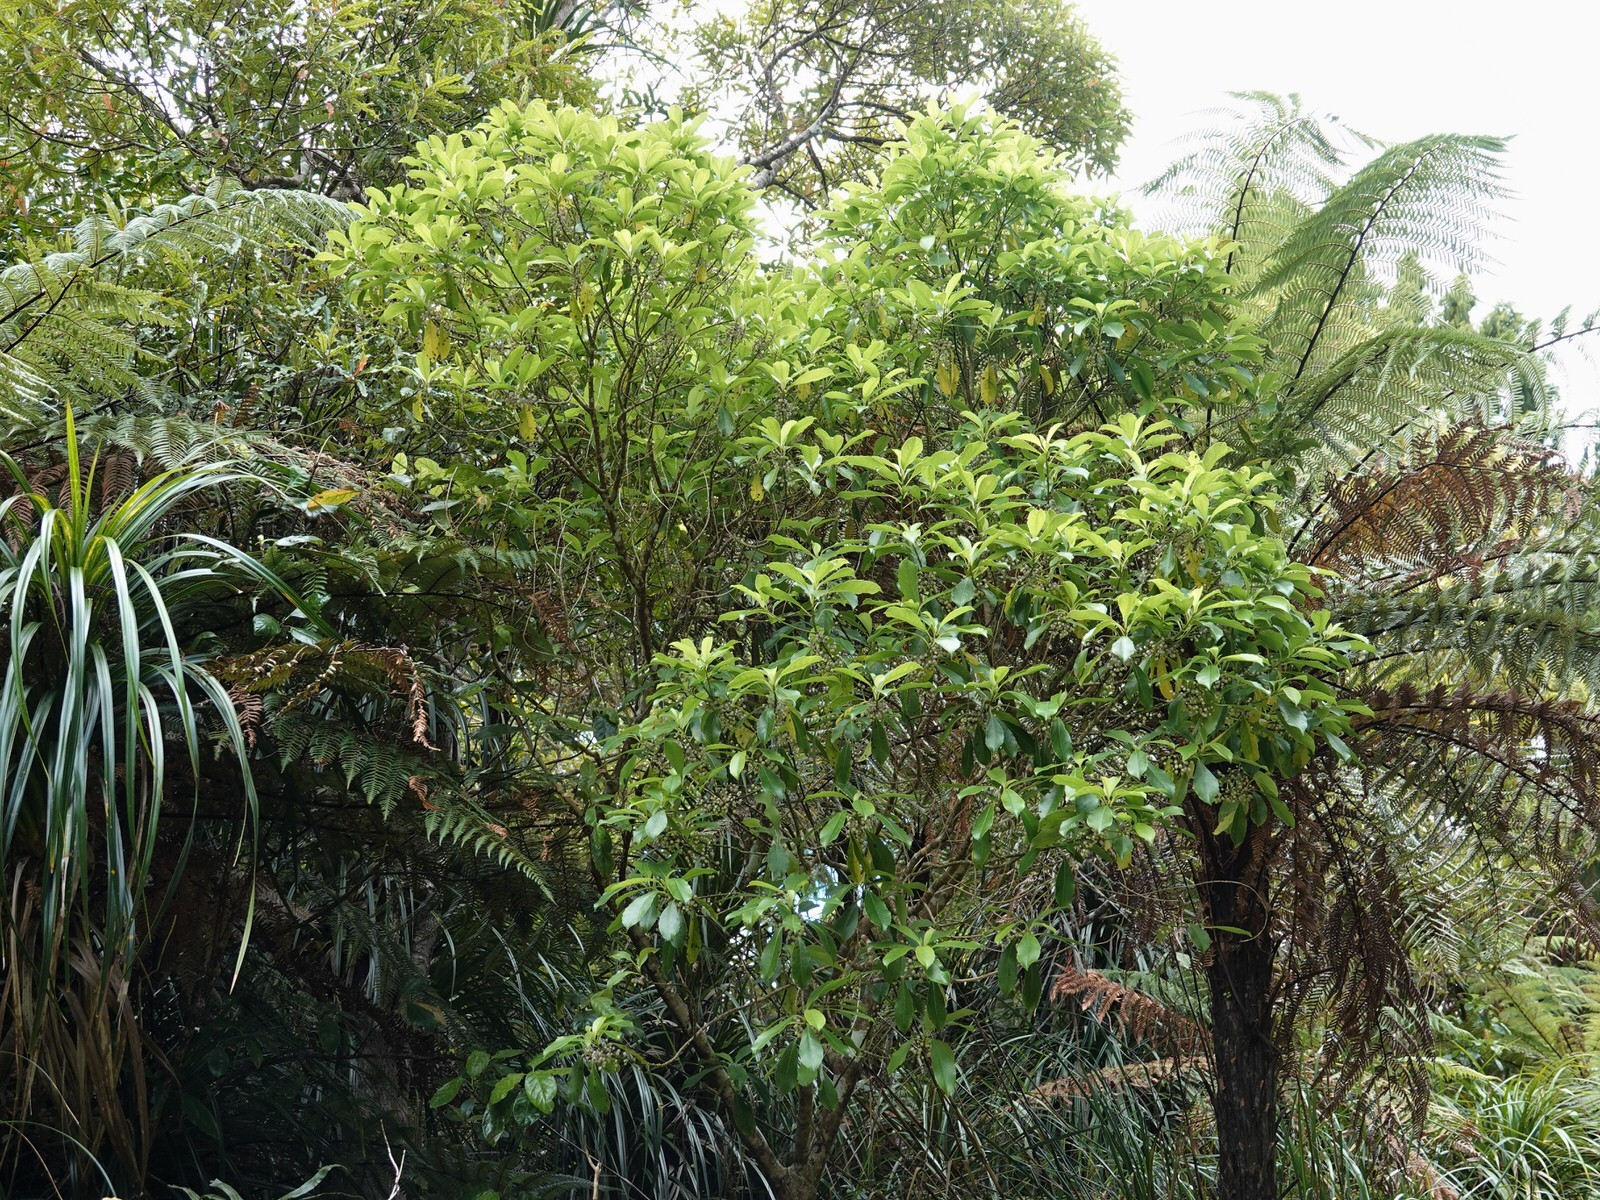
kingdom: Plantae
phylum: Tracheophyta
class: Magnoliopsida
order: Malpighiales
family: Violaceae
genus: Melicytus
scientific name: Melicytus macrophyllus
